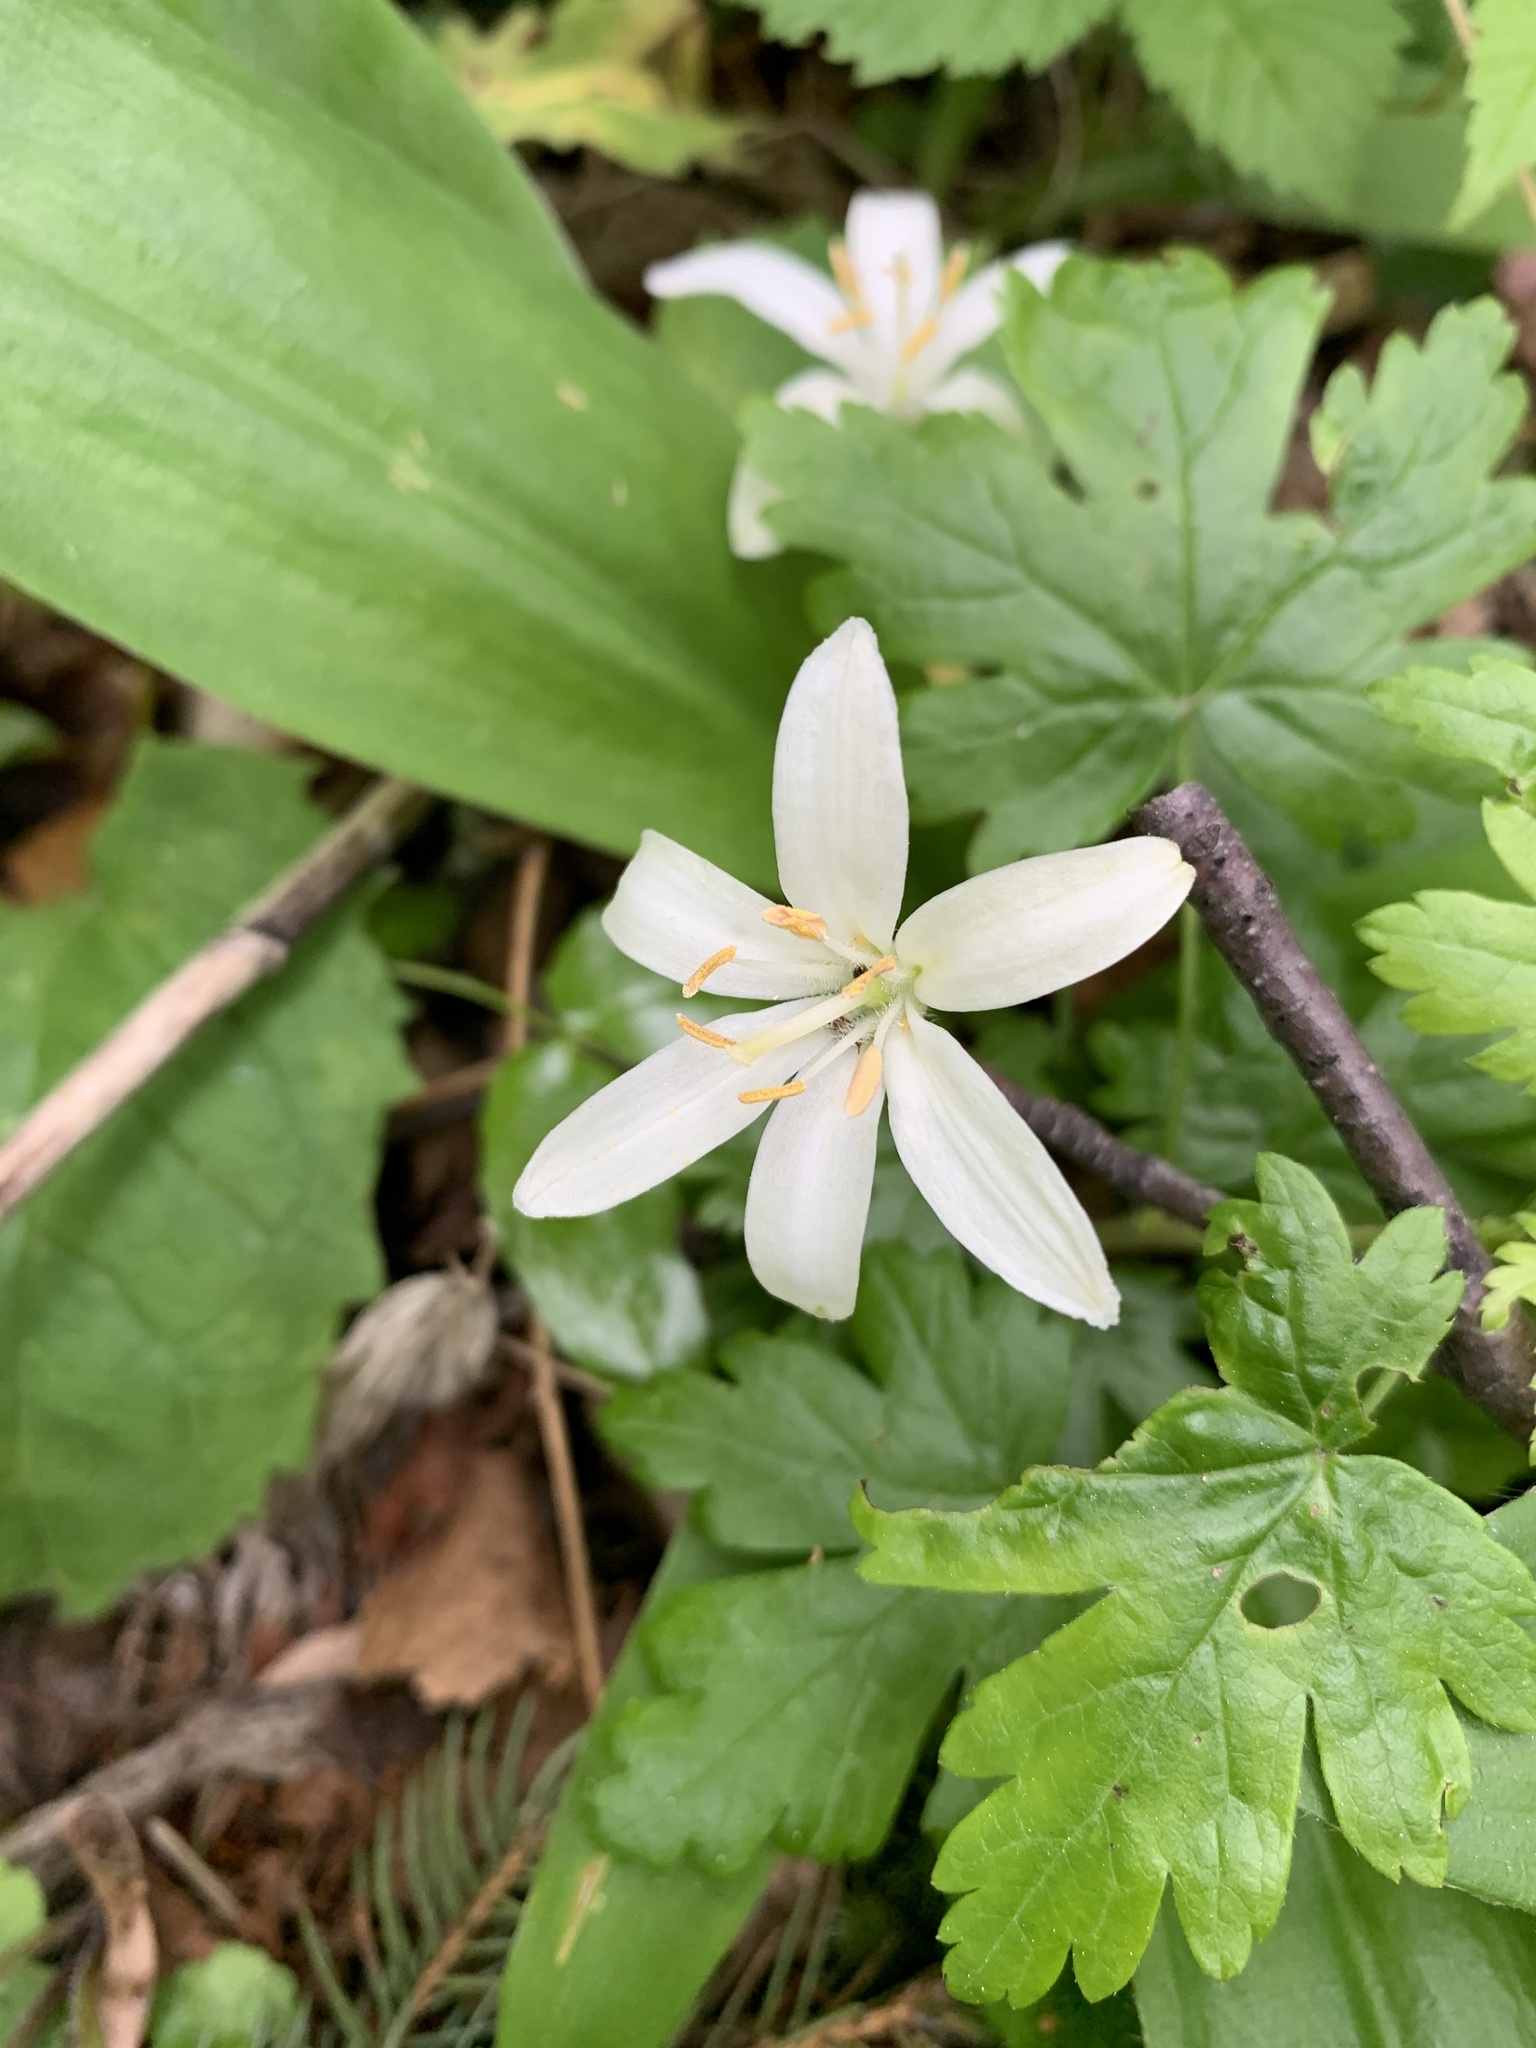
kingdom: Plantae
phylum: Tracheophyta
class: Liliopsida
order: Liliales
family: Liliaceae
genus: Clintonia
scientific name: Clintonia uniflora
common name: Queen's cup
